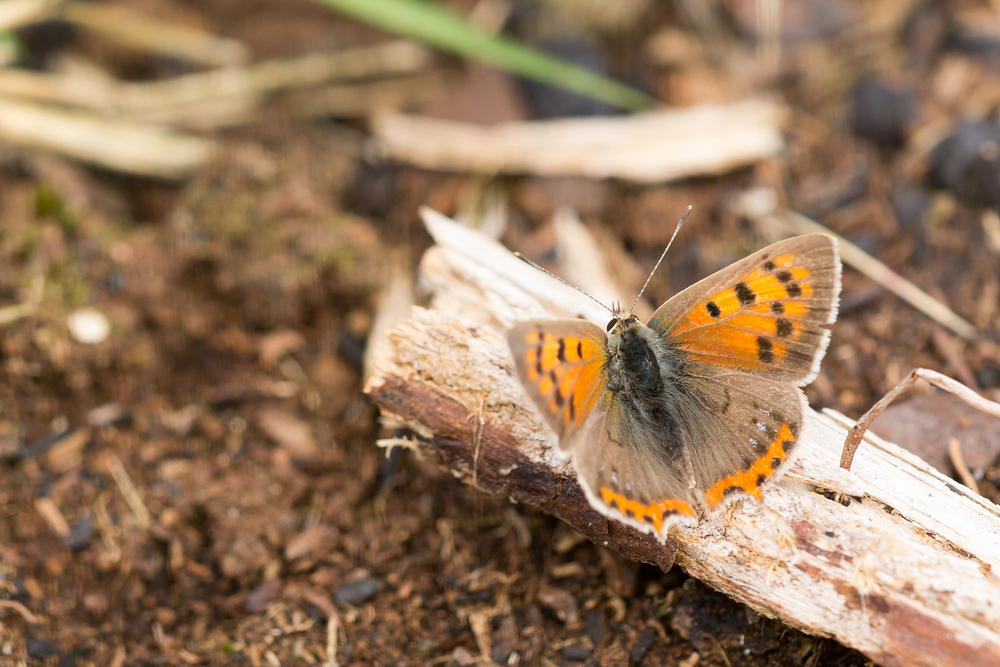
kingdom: Animalia
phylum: Arthropoda
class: Insecta
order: Lepidoptera
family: Lycaenidae
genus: Lycaena
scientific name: Lycaena phlaeas
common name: Small copper
